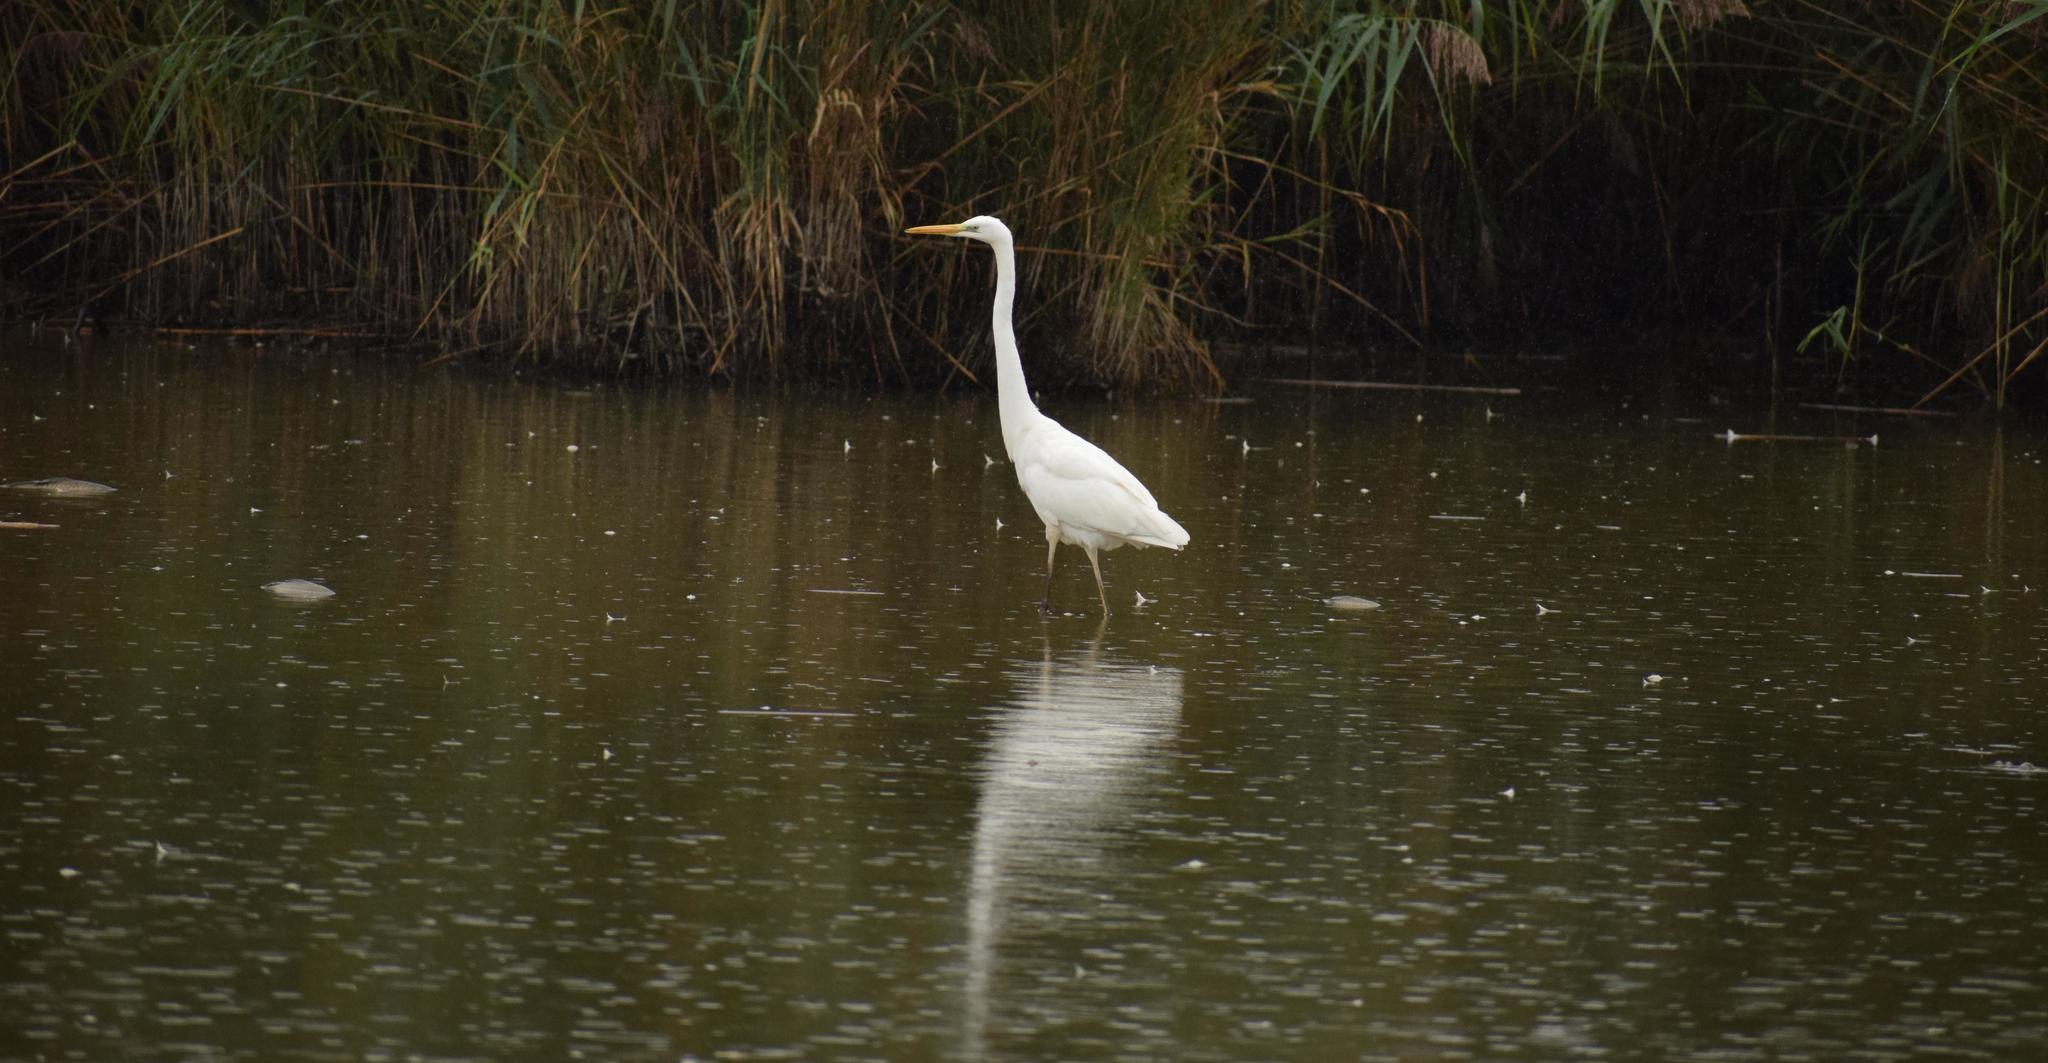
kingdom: Animalia
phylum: Chordata
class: Aves
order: Pelecaniformes
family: Ardeidae
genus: Ardea
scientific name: Ardea alba
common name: Great egret
